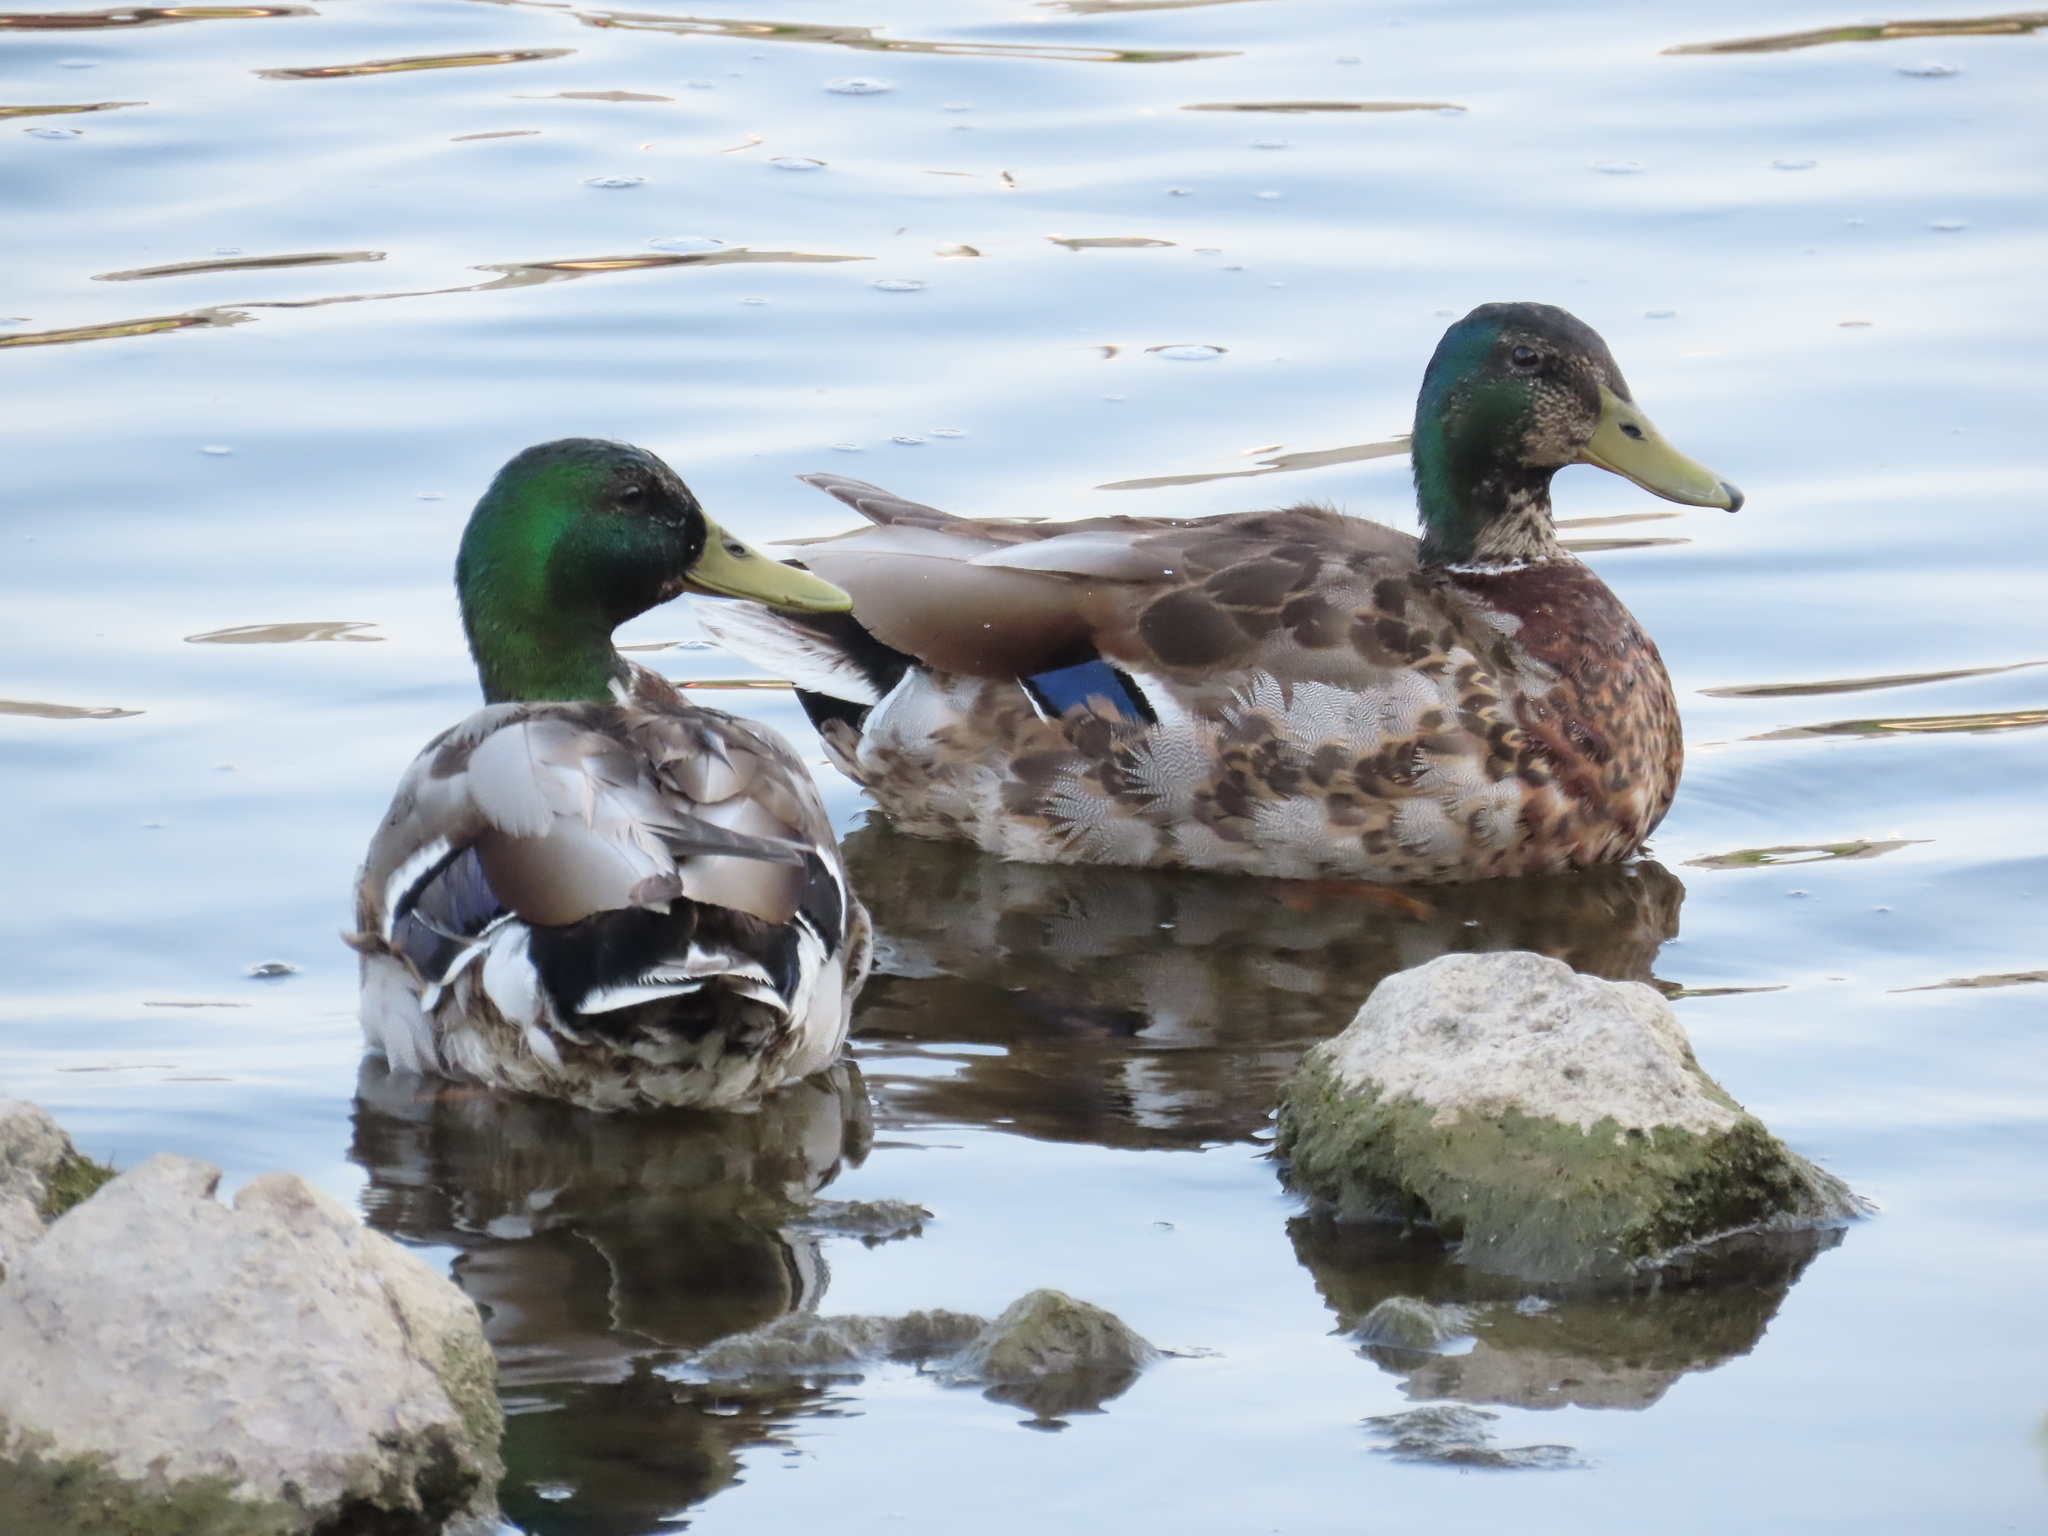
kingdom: Animalia
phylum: Chordata
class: Aves
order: Anseriformes
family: Anatidae
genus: Anas
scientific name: Anas platyrhynchos
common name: Mallard
